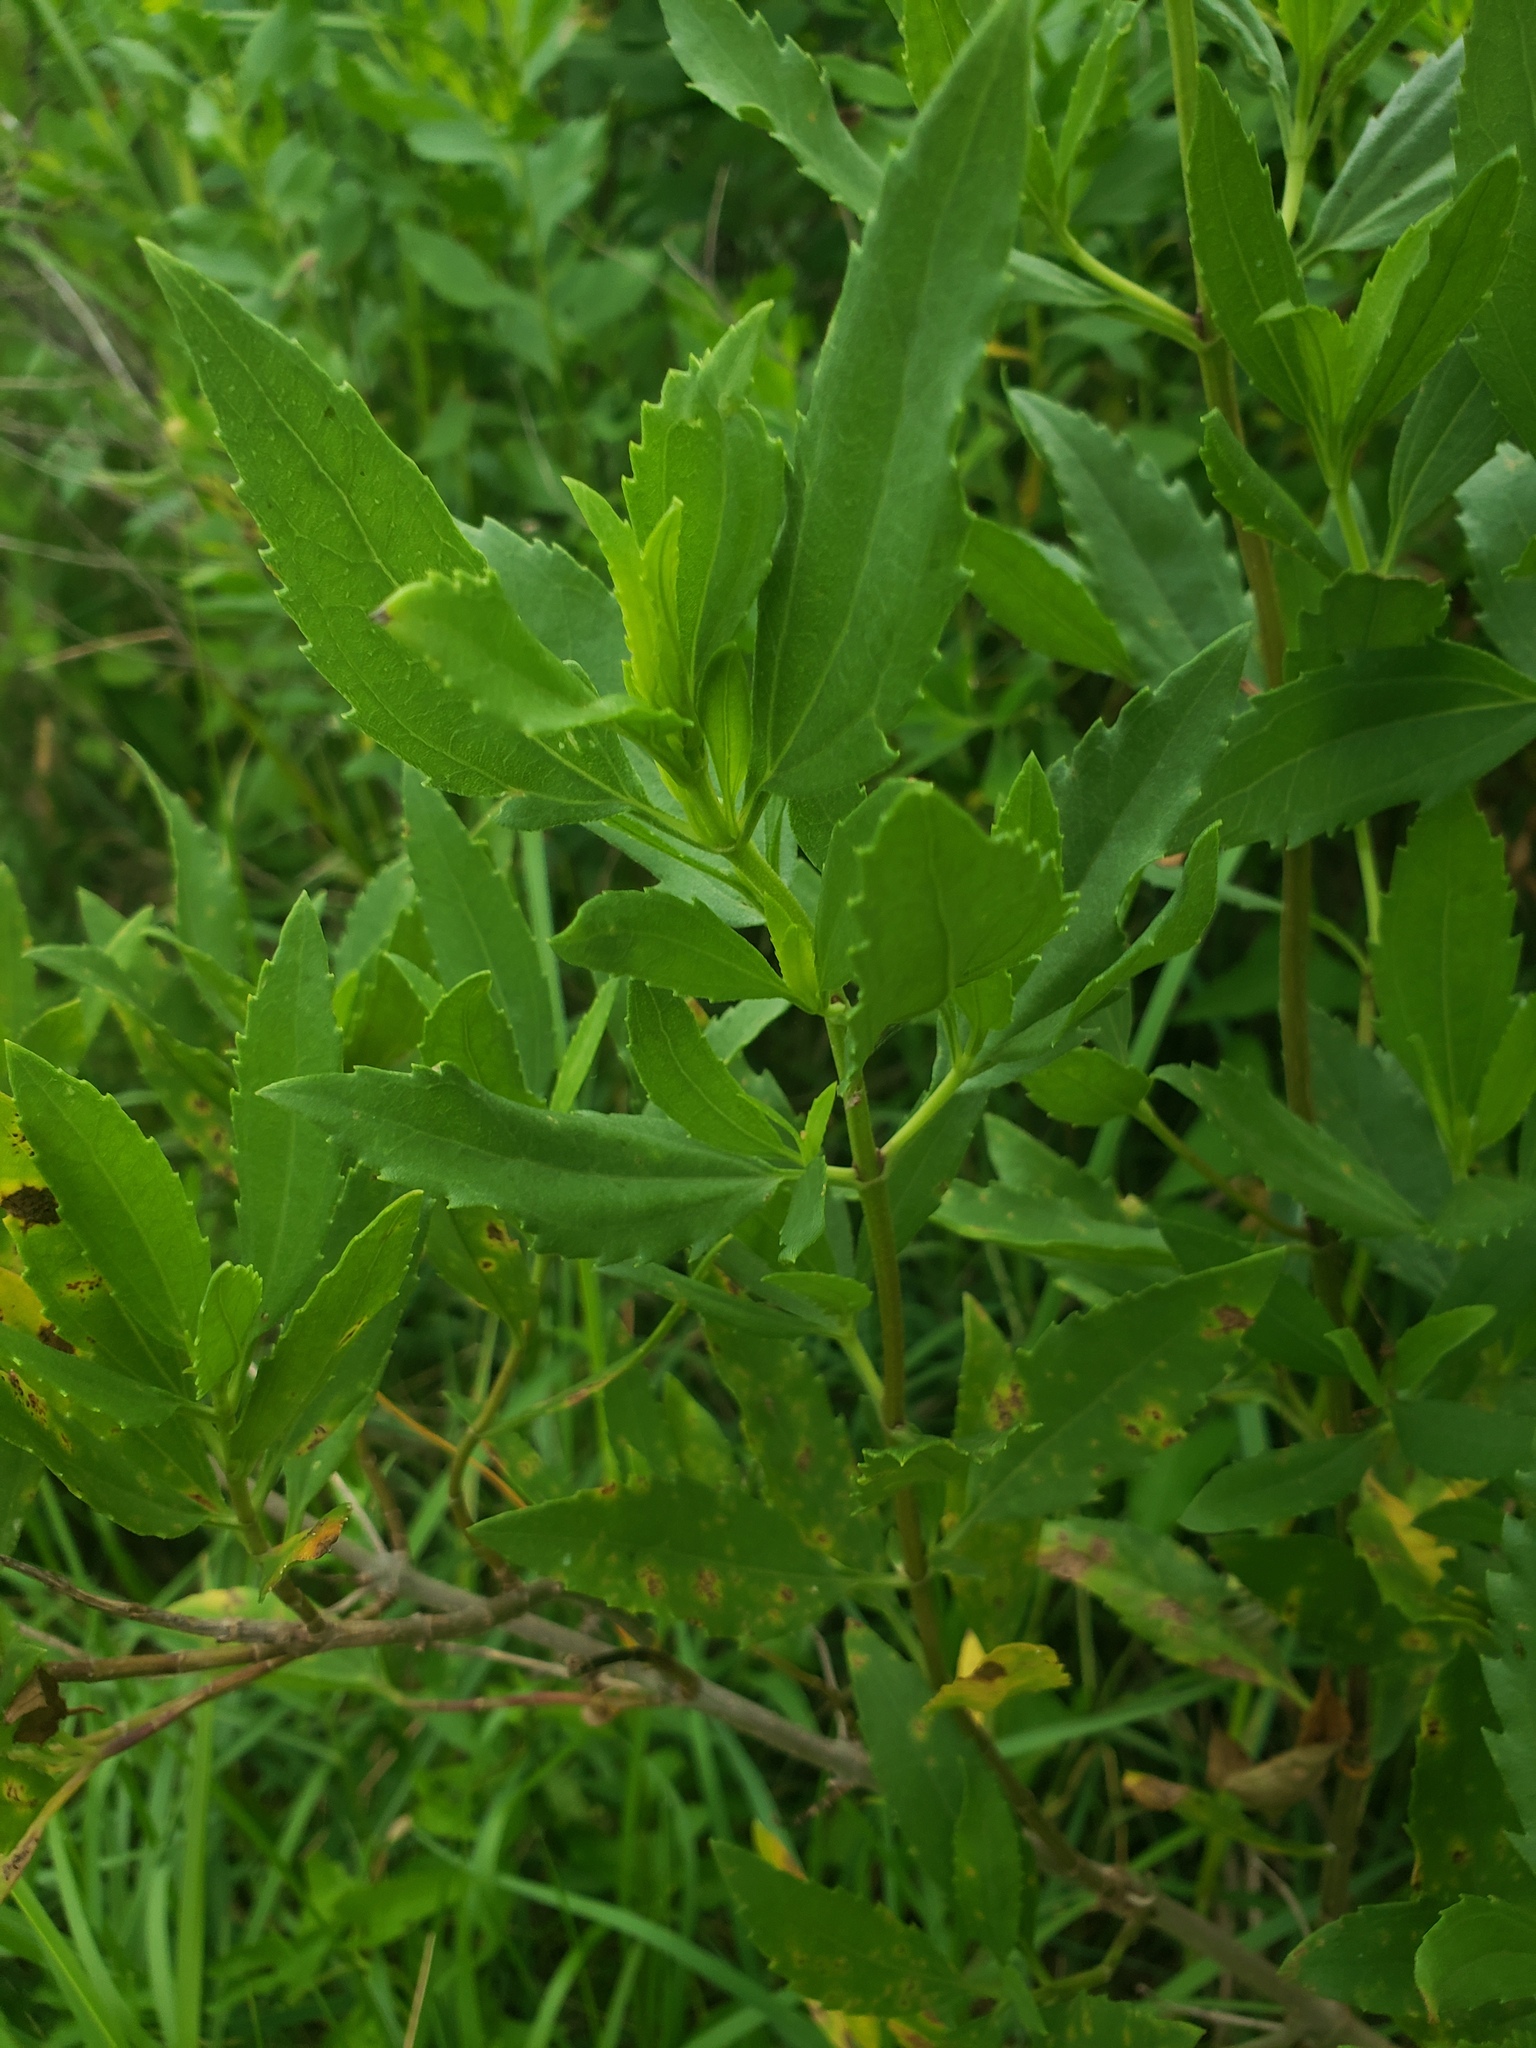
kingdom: Plantae
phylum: Tracheophyta
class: Magnoliopsida
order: Asterales
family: Asteraceae
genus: Iva
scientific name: Iva frutescens
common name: Big-leaved marsh-elder
